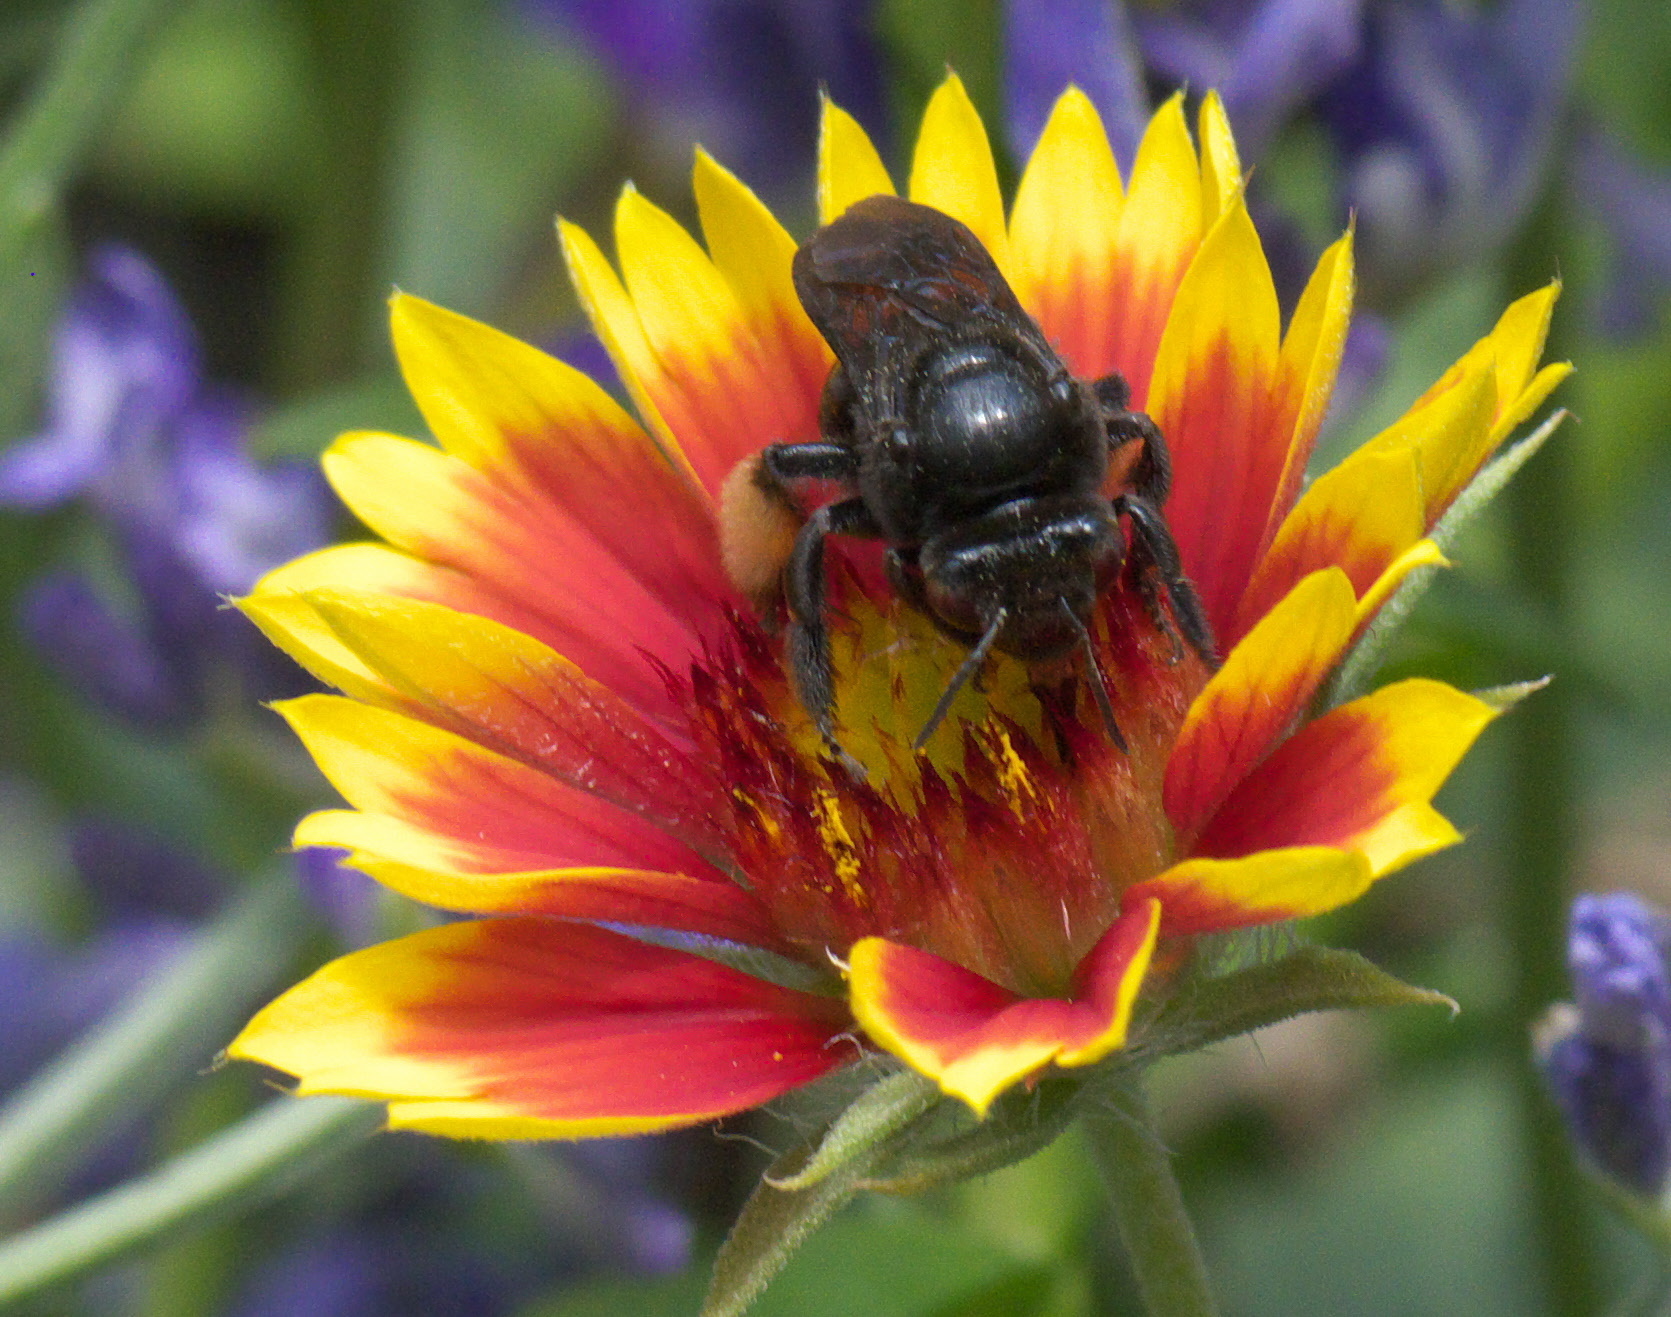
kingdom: Animalia
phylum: Arthropoda
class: Insecta
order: Hymenoptera
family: Apidae
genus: Melissodes
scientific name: Melissodes bimaculatus
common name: Two-spotted long-horned bee
